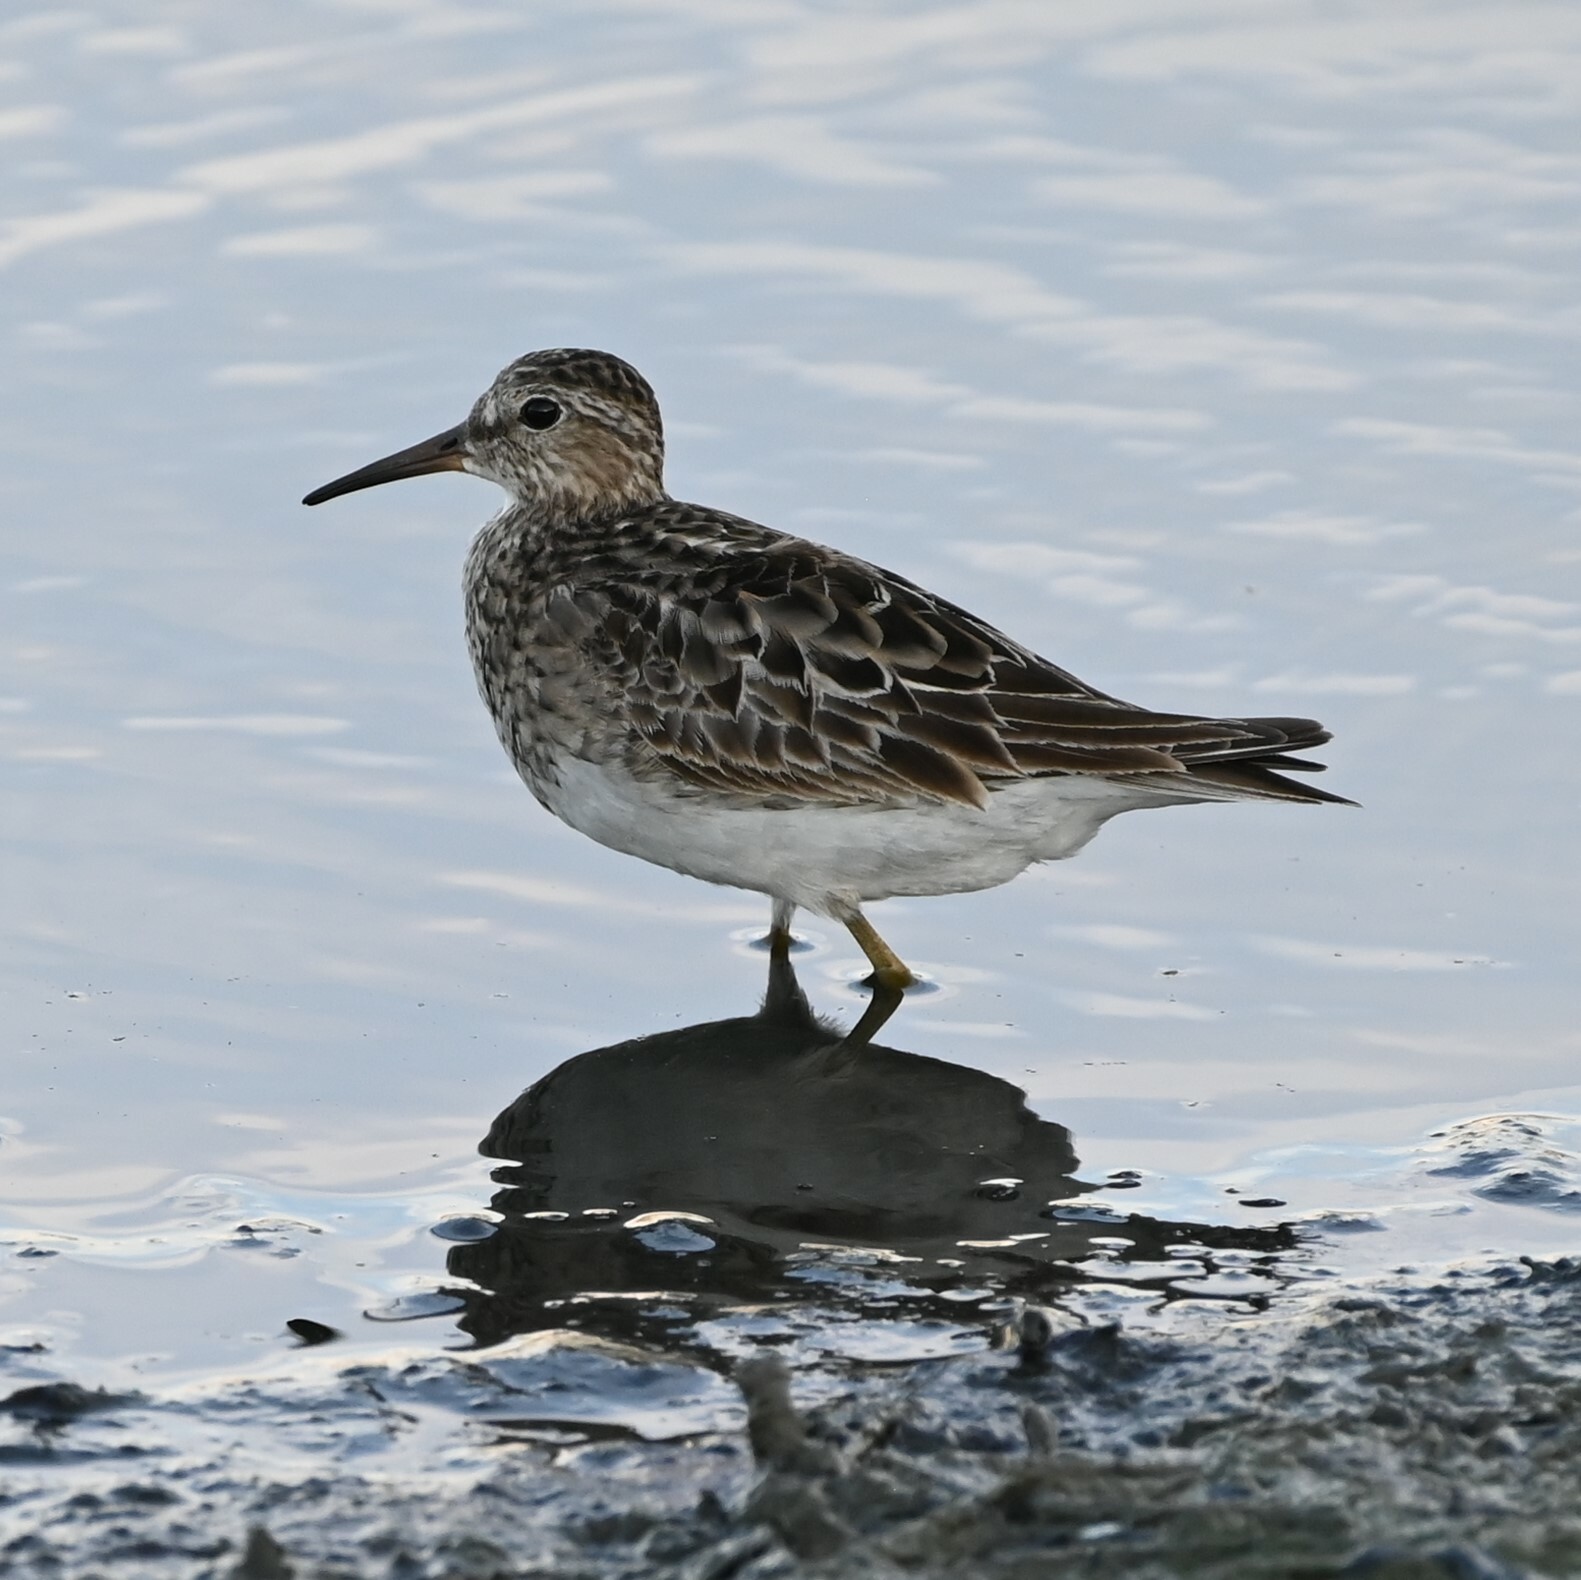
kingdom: Animalia
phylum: Chordata
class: Aves
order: Charadriiformes
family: Scolopacidae
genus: Calidris
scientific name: Calidris melanotos
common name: Pectoral sandpiper
